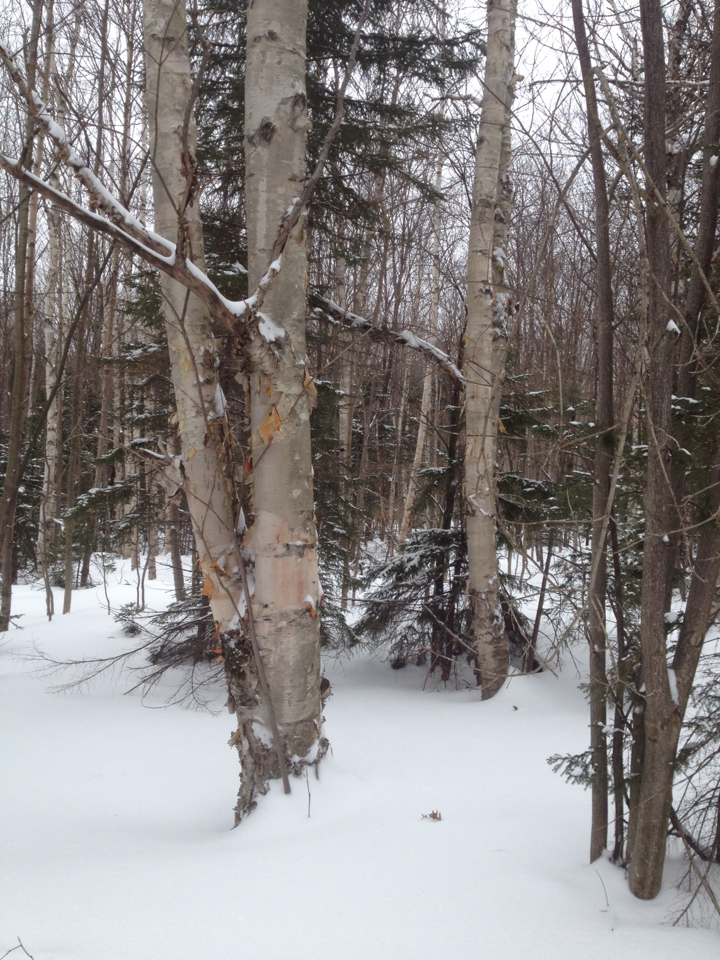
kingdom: Plantae
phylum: Tracheophyta
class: Magnoliopsida
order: Fagales
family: Betulaceae
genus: Betula
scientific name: Betula cordifolia
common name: Mountain white birch
